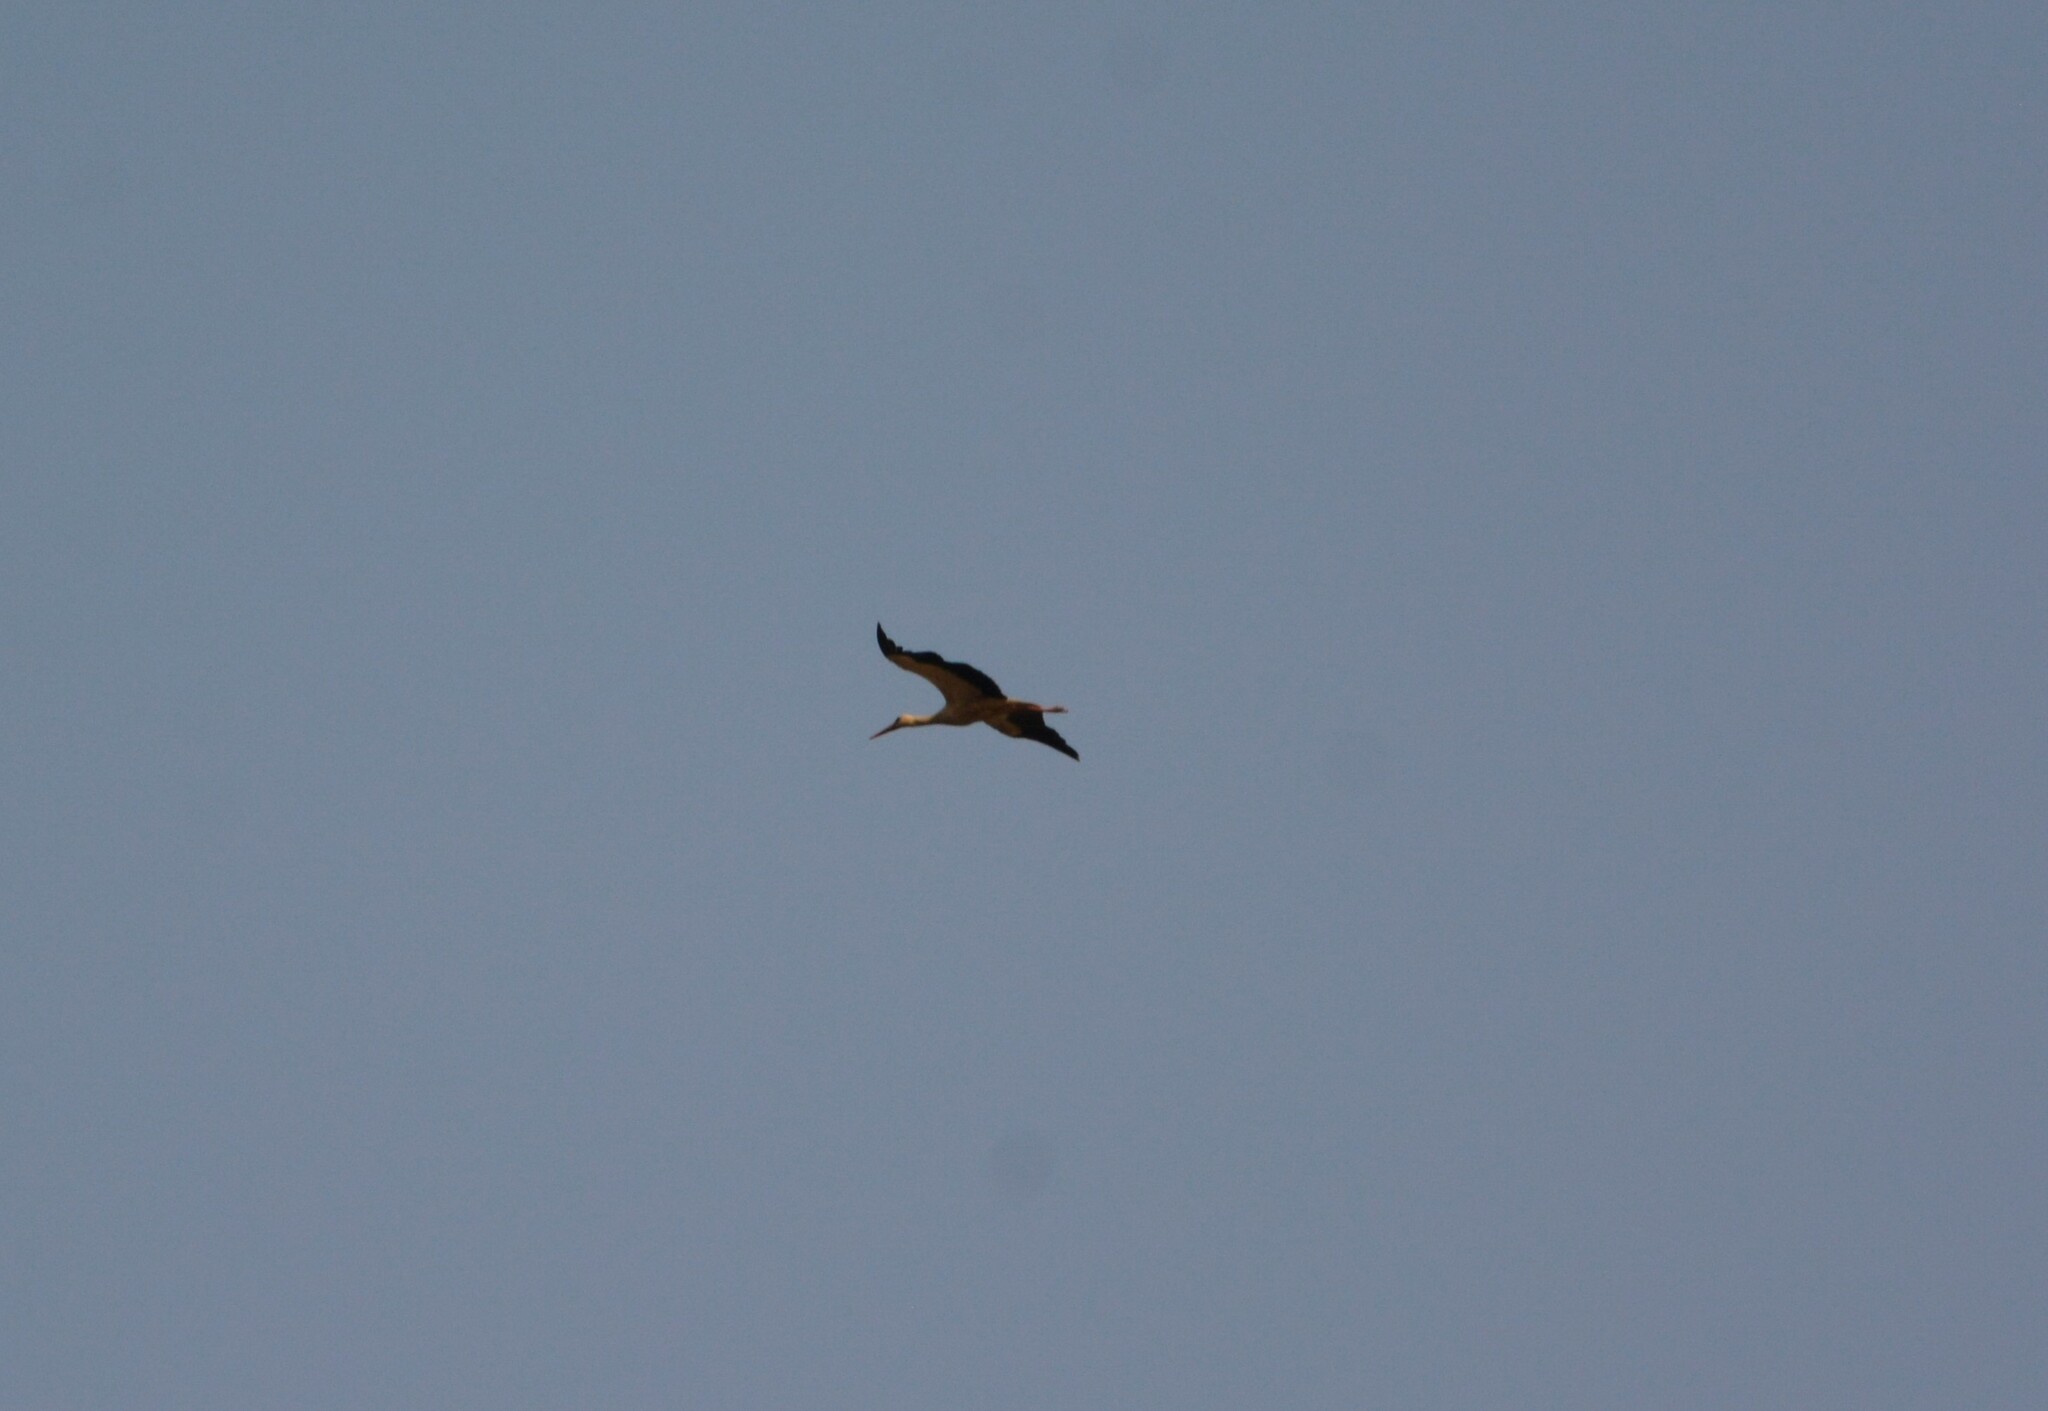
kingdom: Animalia
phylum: Chordata
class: Aves
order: Ciconiiformes
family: Ciconiidae
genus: Ciconia
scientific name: Ciconia ciconia
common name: White stork
